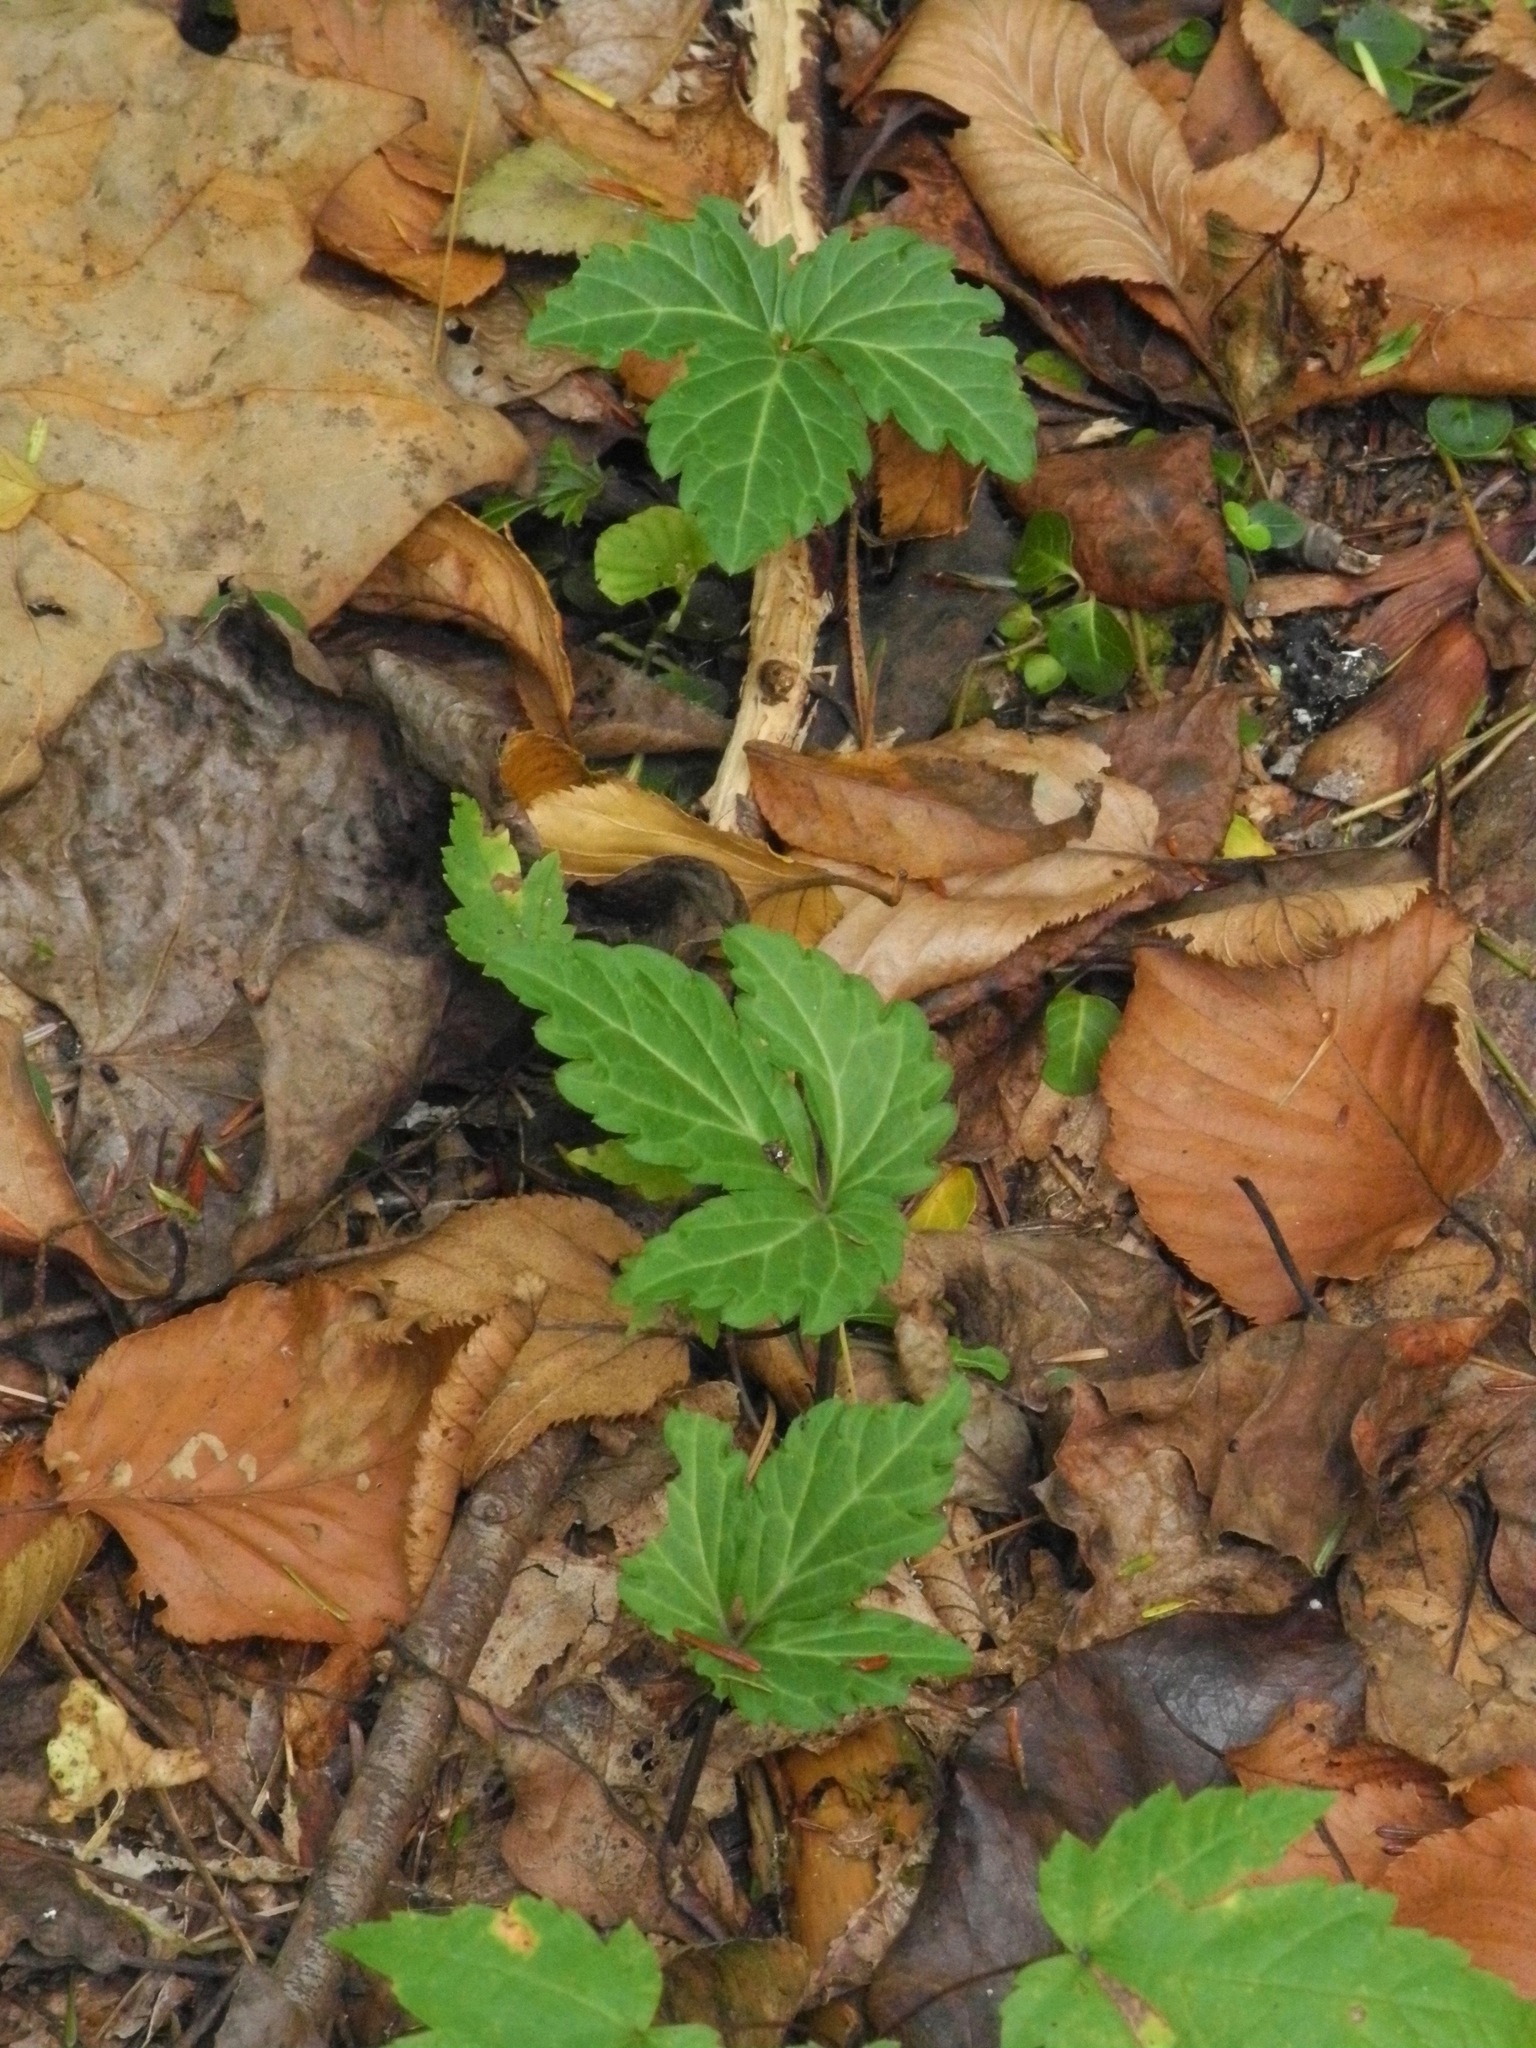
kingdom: Plantae
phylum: Tracheophyta
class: Magnoliopsida
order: Brassicales
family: Brassicaceae
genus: Cardamine
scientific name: Cardamine diphylla
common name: Broad-leaved toothwort
